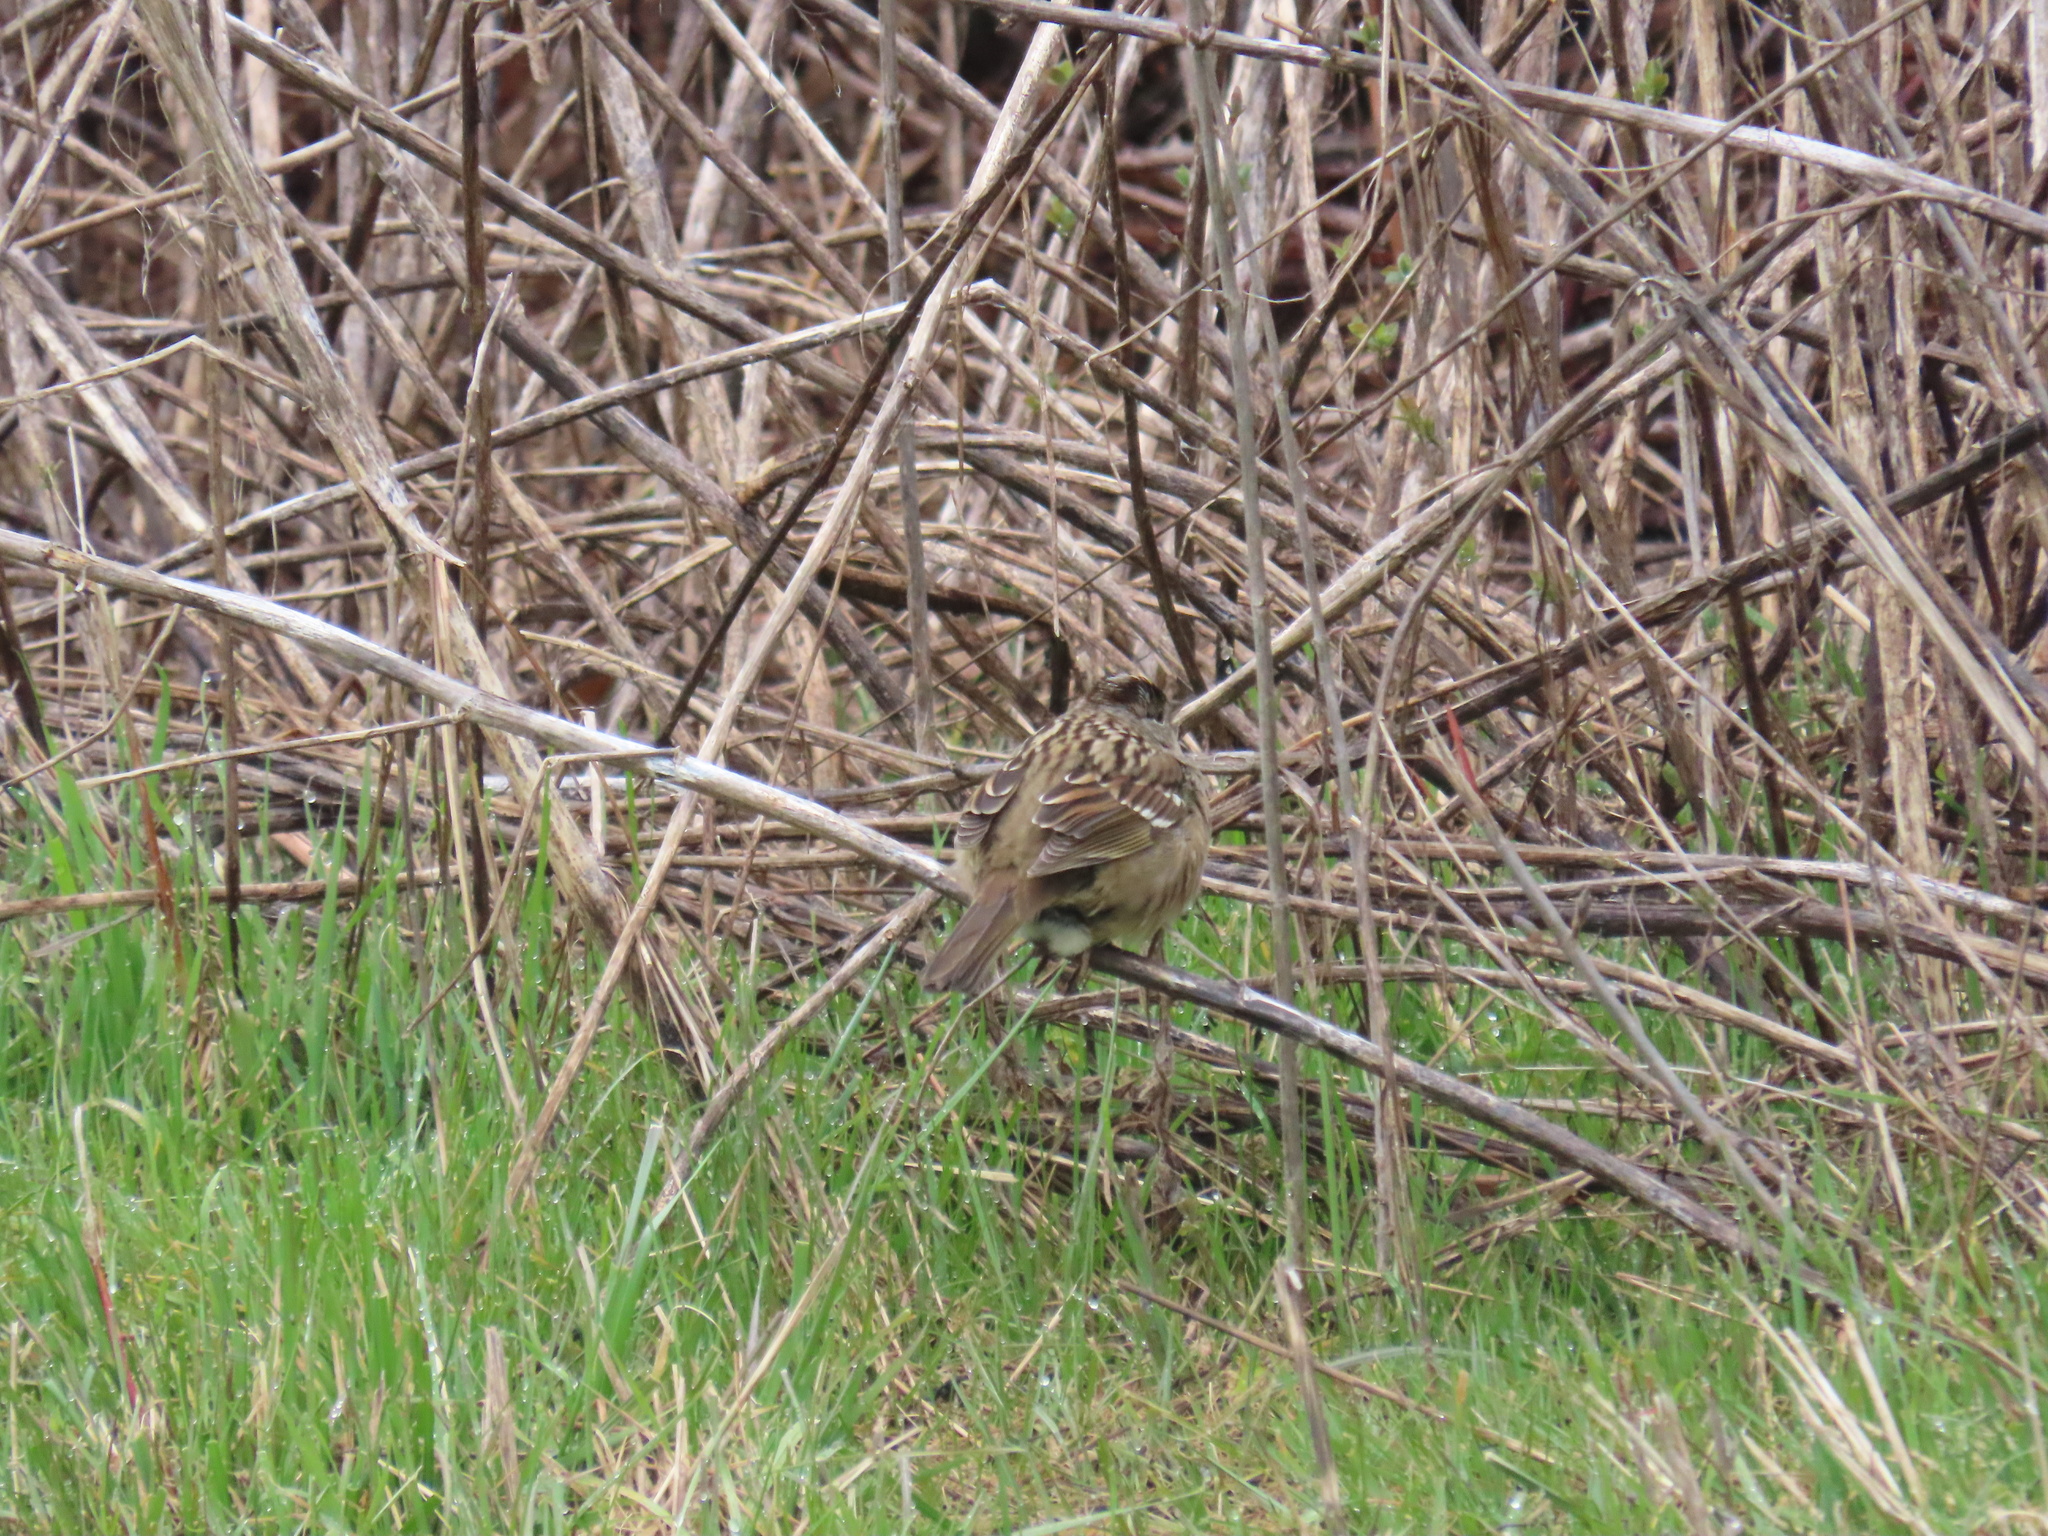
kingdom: Animalia
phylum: Chordata
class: Aves
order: Passeriformes
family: Passerellidae
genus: Zonotrichia
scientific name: Zonotrichia atricapilla
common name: Golden-crowned sparrow
